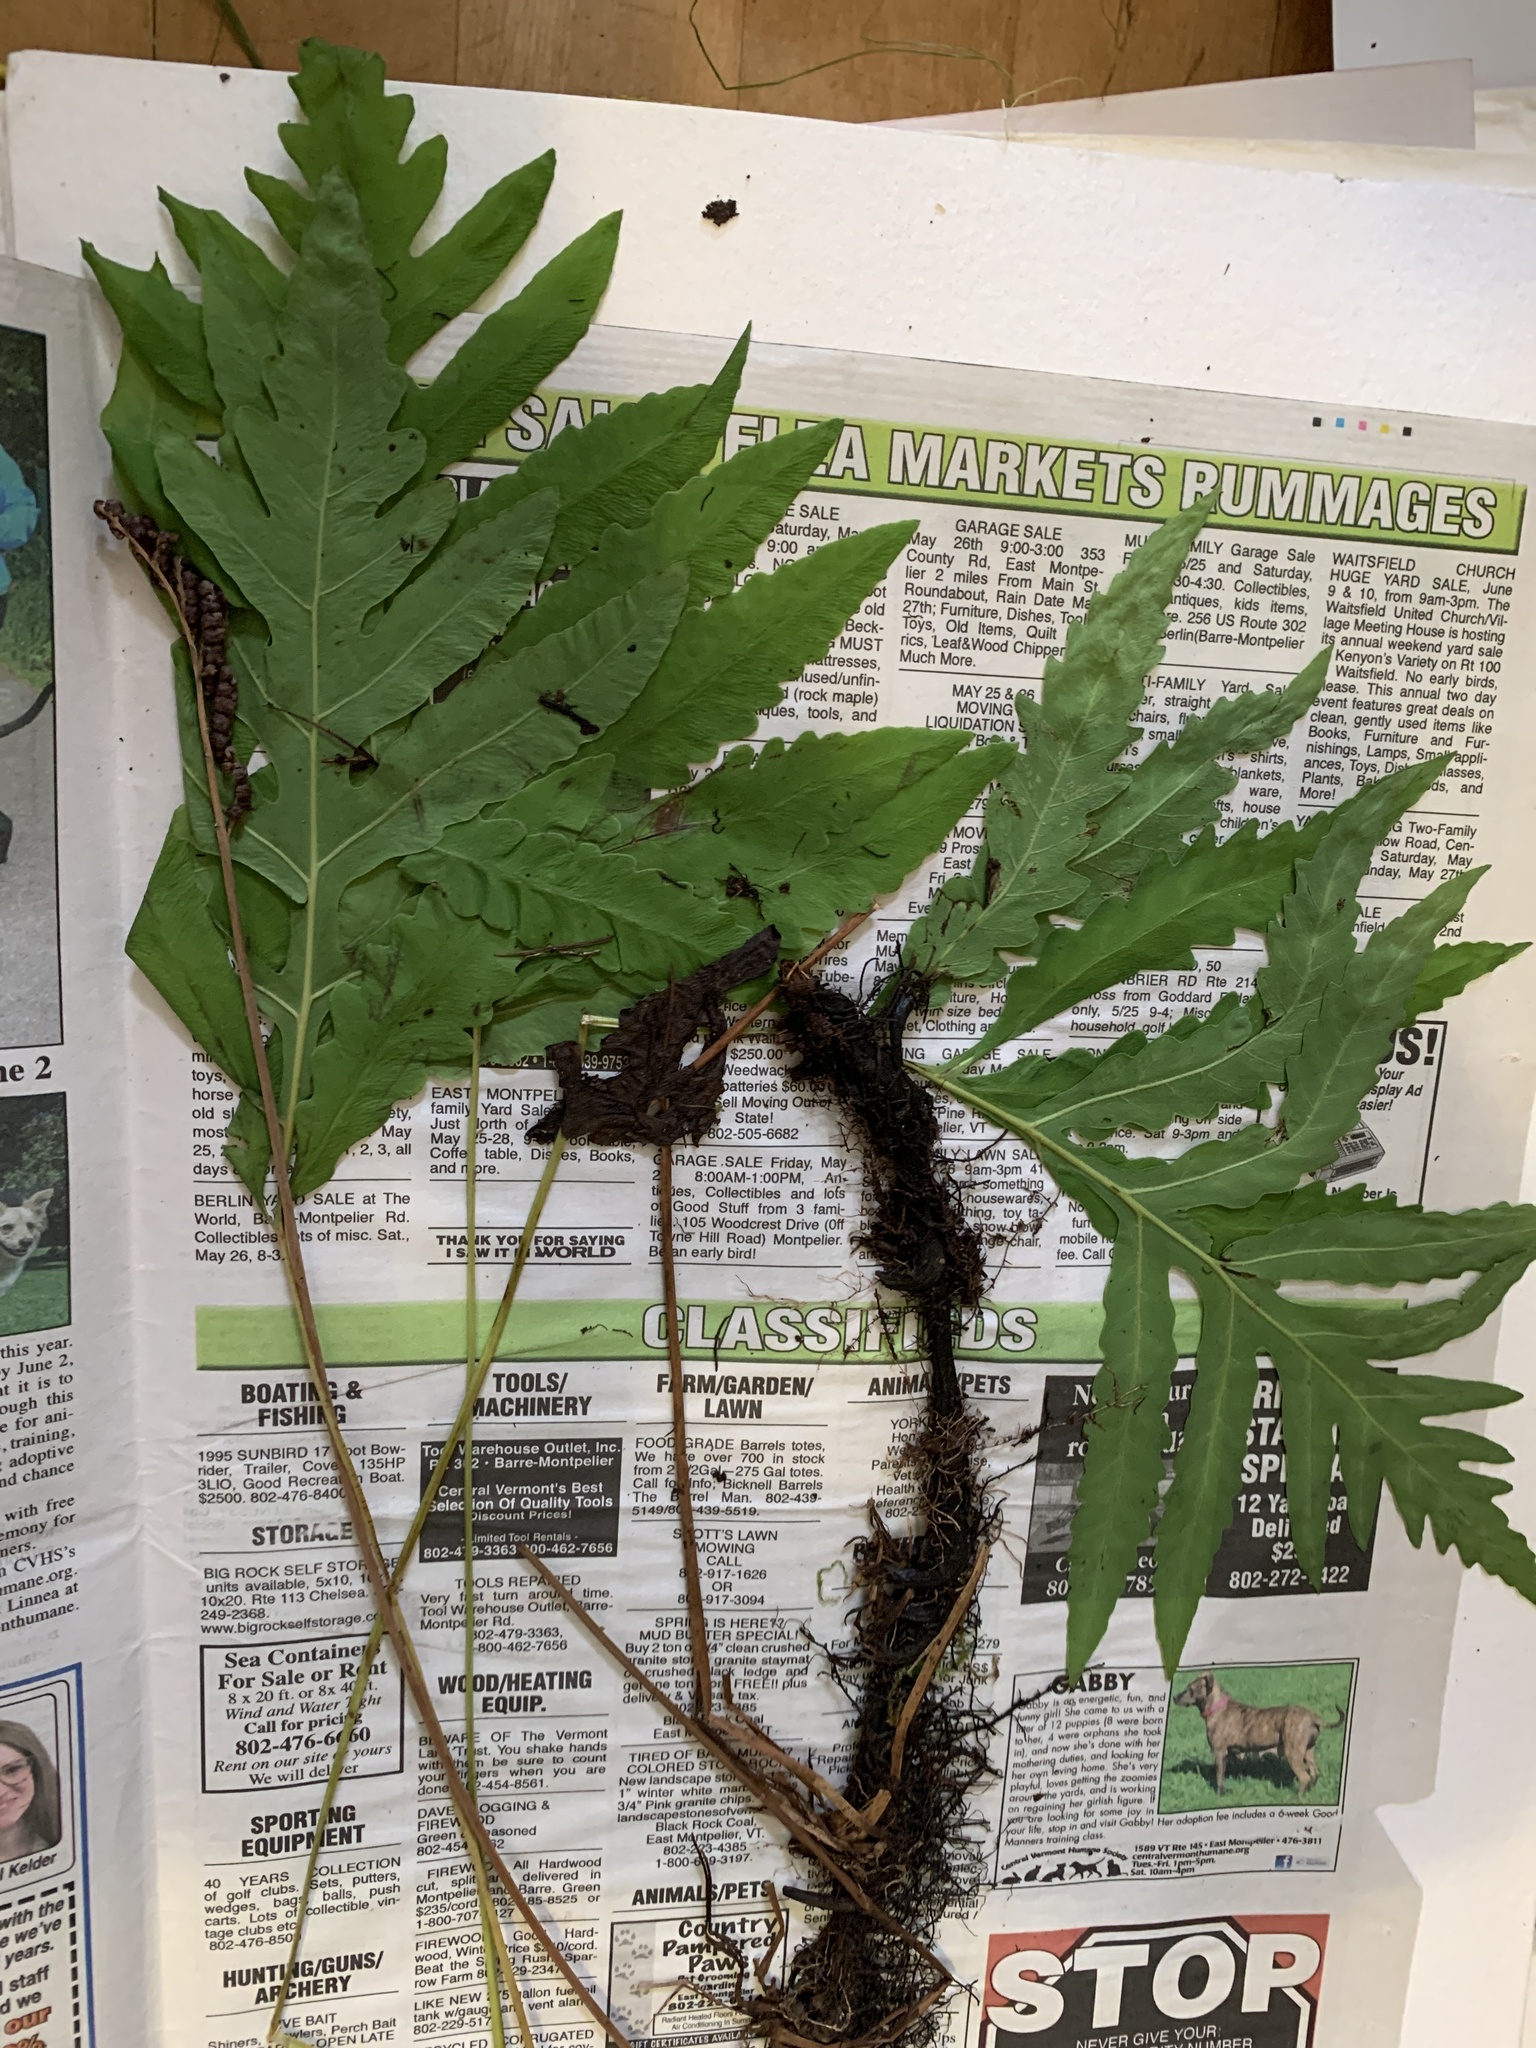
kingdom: Plantae
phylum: Tracheophyta
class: Polypodiopsida
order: Polypodiales
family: Onocleaceae
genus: Onoclea
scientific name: Onoclea sensibilis
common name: Sensitive fern
